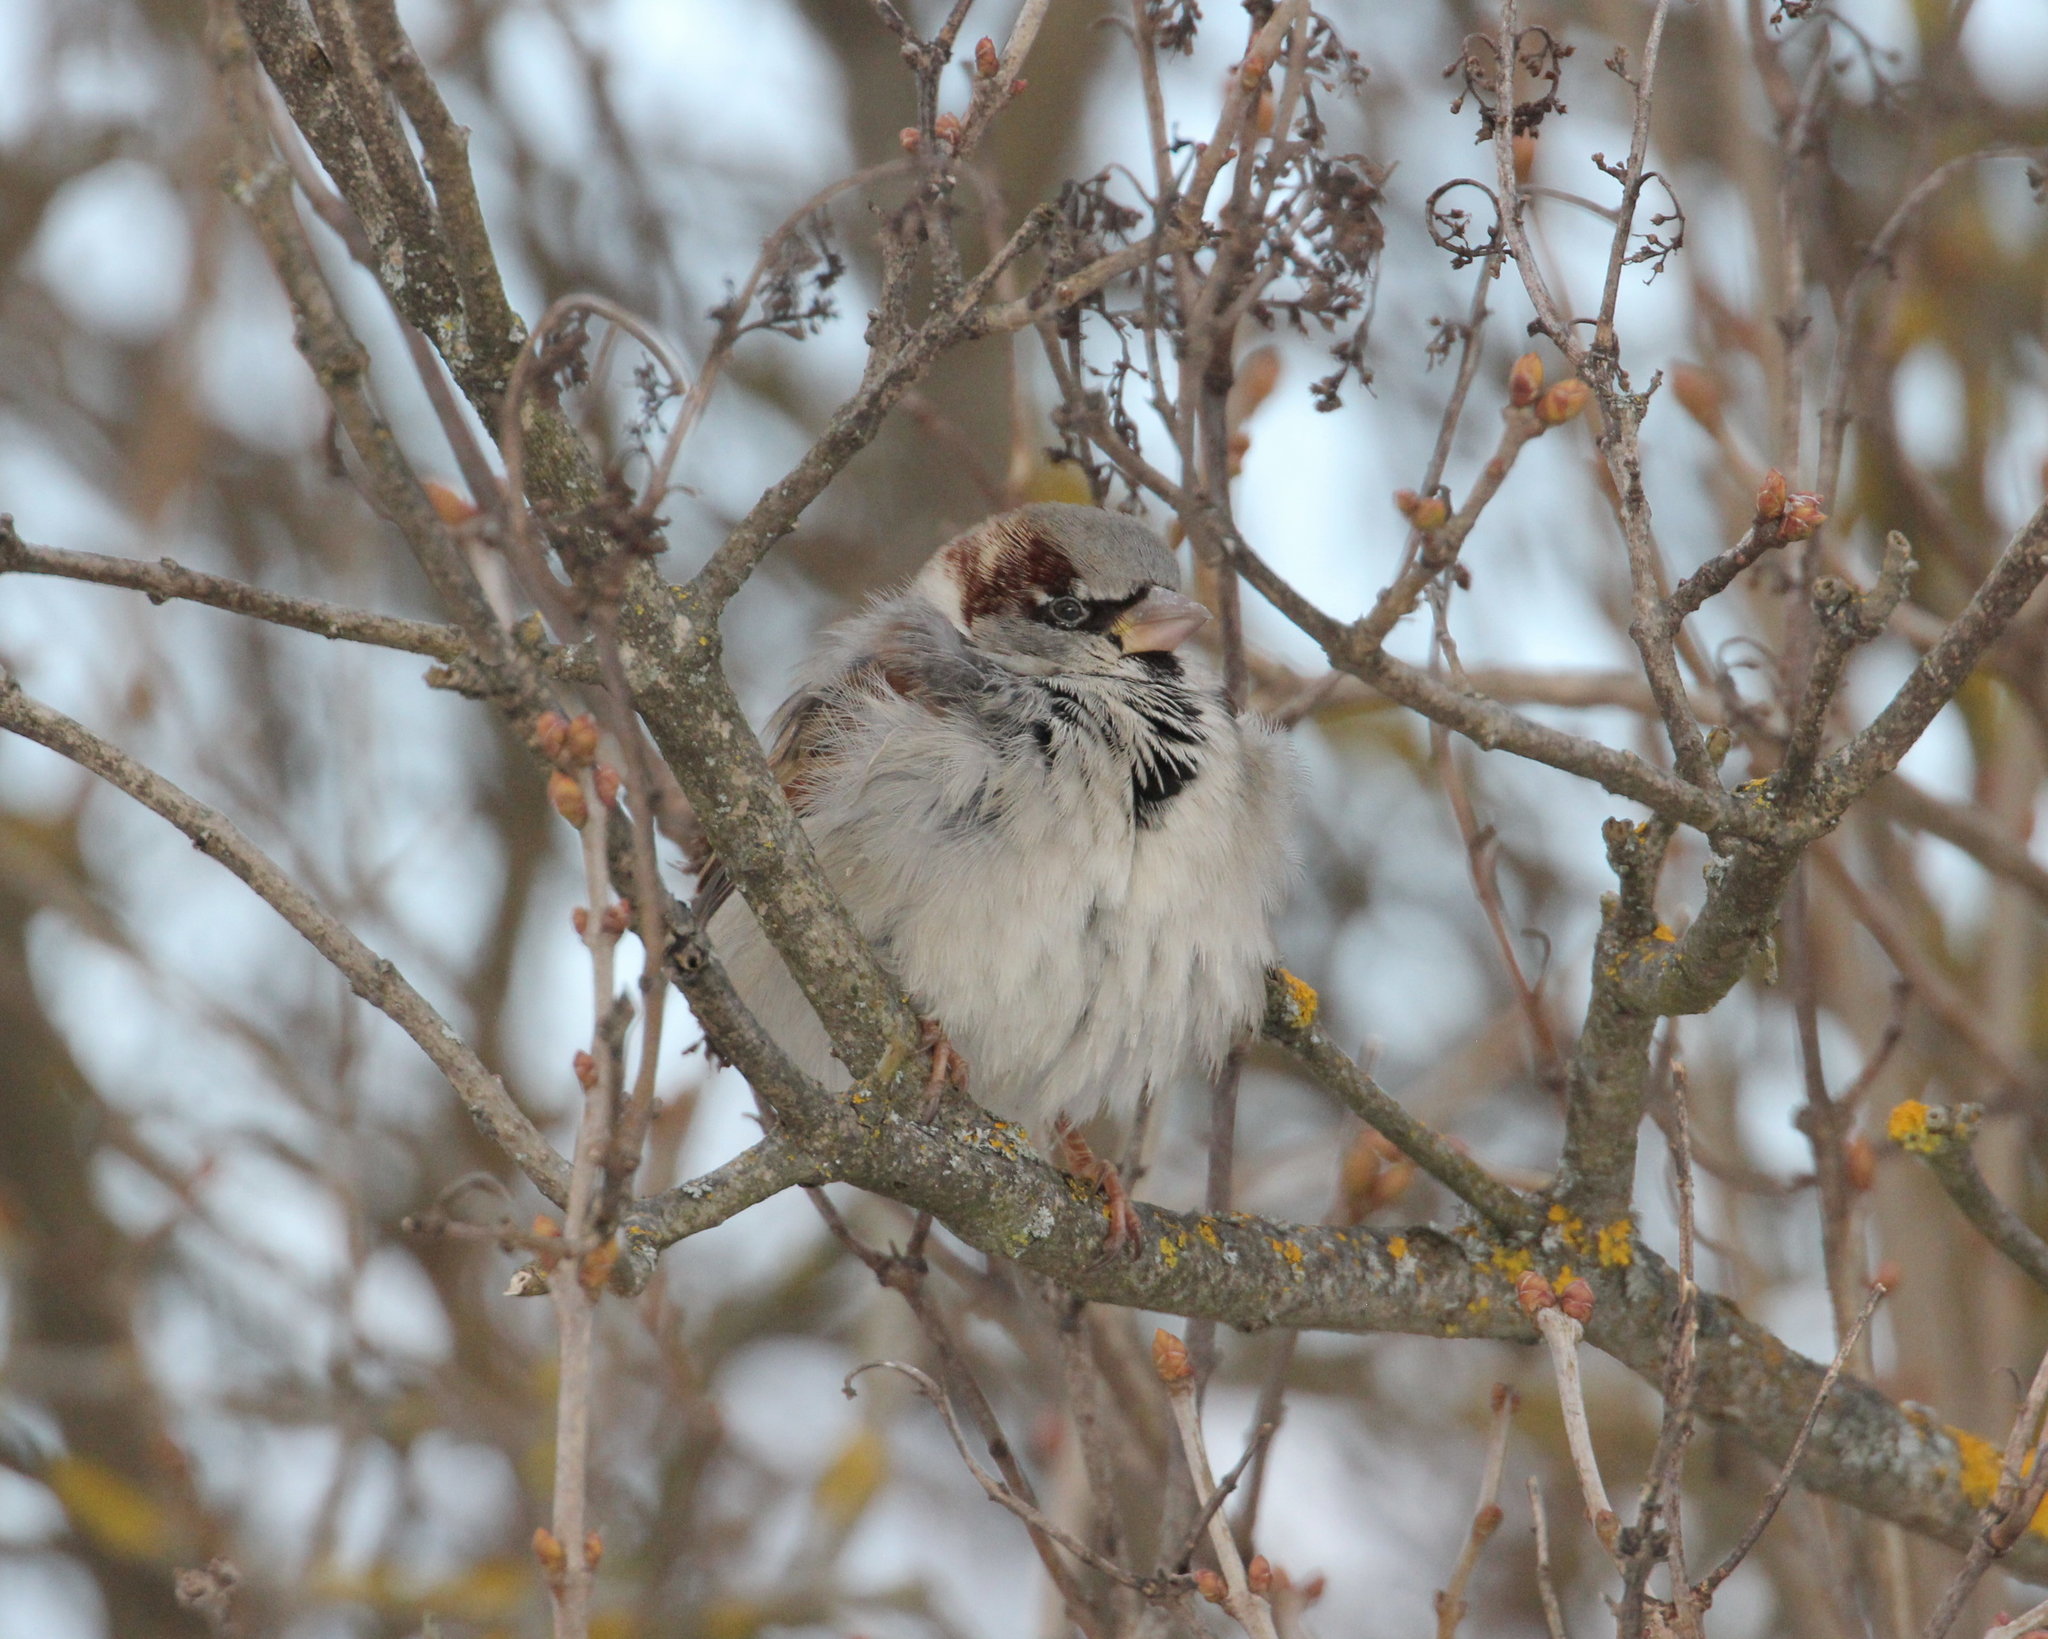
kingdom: Animalia
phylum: Chordata
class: Aves
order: Passeriformes
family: Passeridae
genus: Passer
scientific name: Passer domesticus
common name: House sparrow
